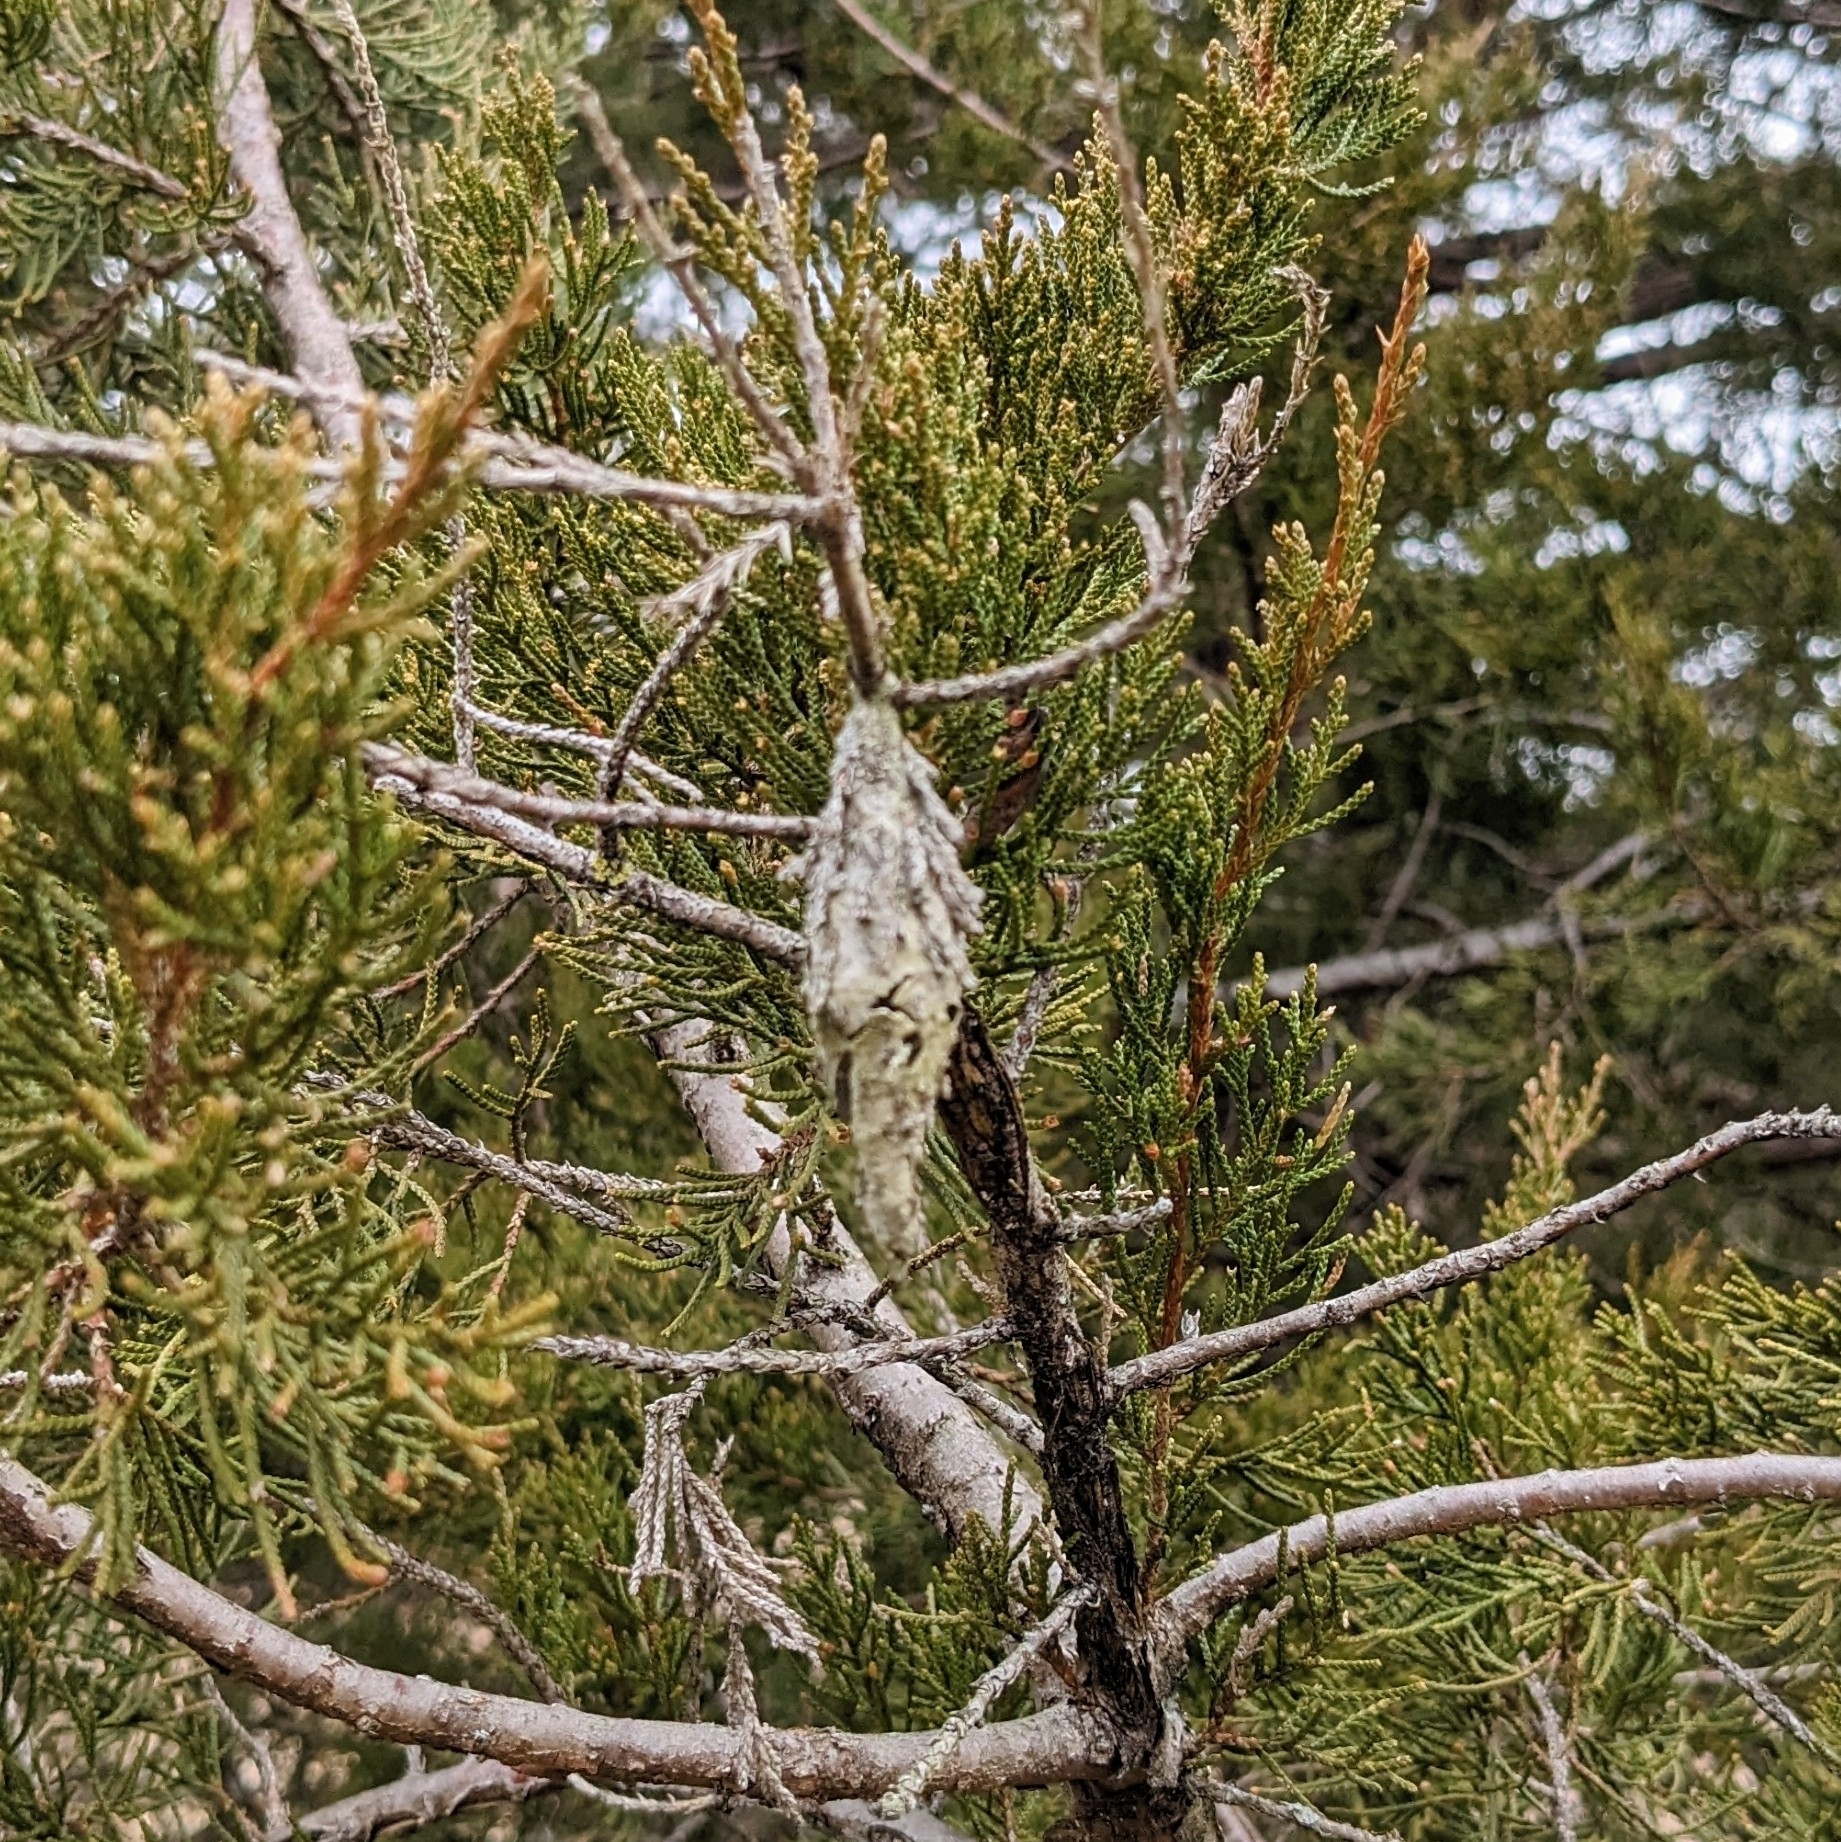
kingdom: Animalia
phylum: Arthropoda
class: Insecta
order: Lepidoptera
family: Psychidae
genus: Thyridopteryx
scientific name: Thyridopteryx ephemeraeformis
